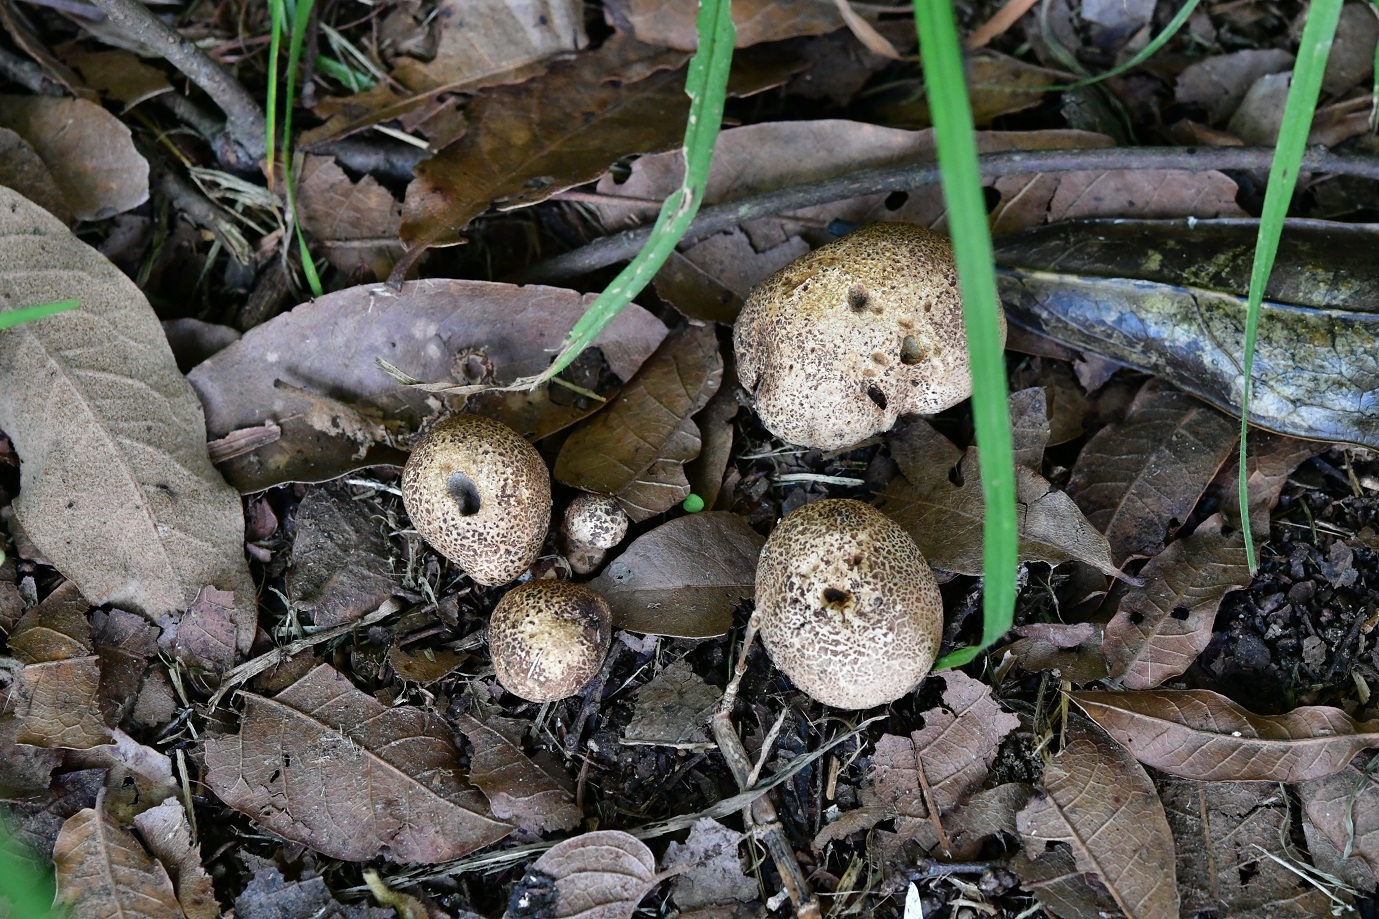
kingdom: Fungi
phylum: Basidiomycota
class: Agaricomycetes
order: Boletales
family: Sclerodermataceae
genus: Scleroderma
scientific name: Scleroderma citrinum
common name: Common earthball
